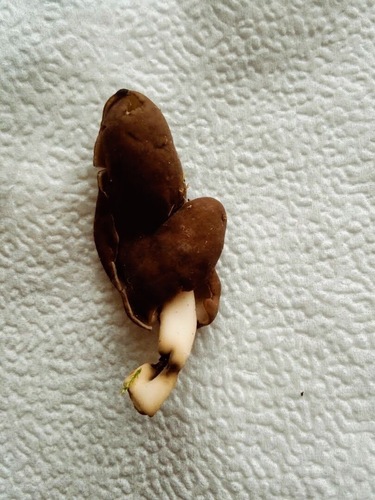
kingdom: Fungi
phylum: Ascomycota
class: Pezizomycetes
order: Pezizales
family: Helvellaceae
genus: Helvella
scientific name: Helvella elastica
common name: Elastic saddle
